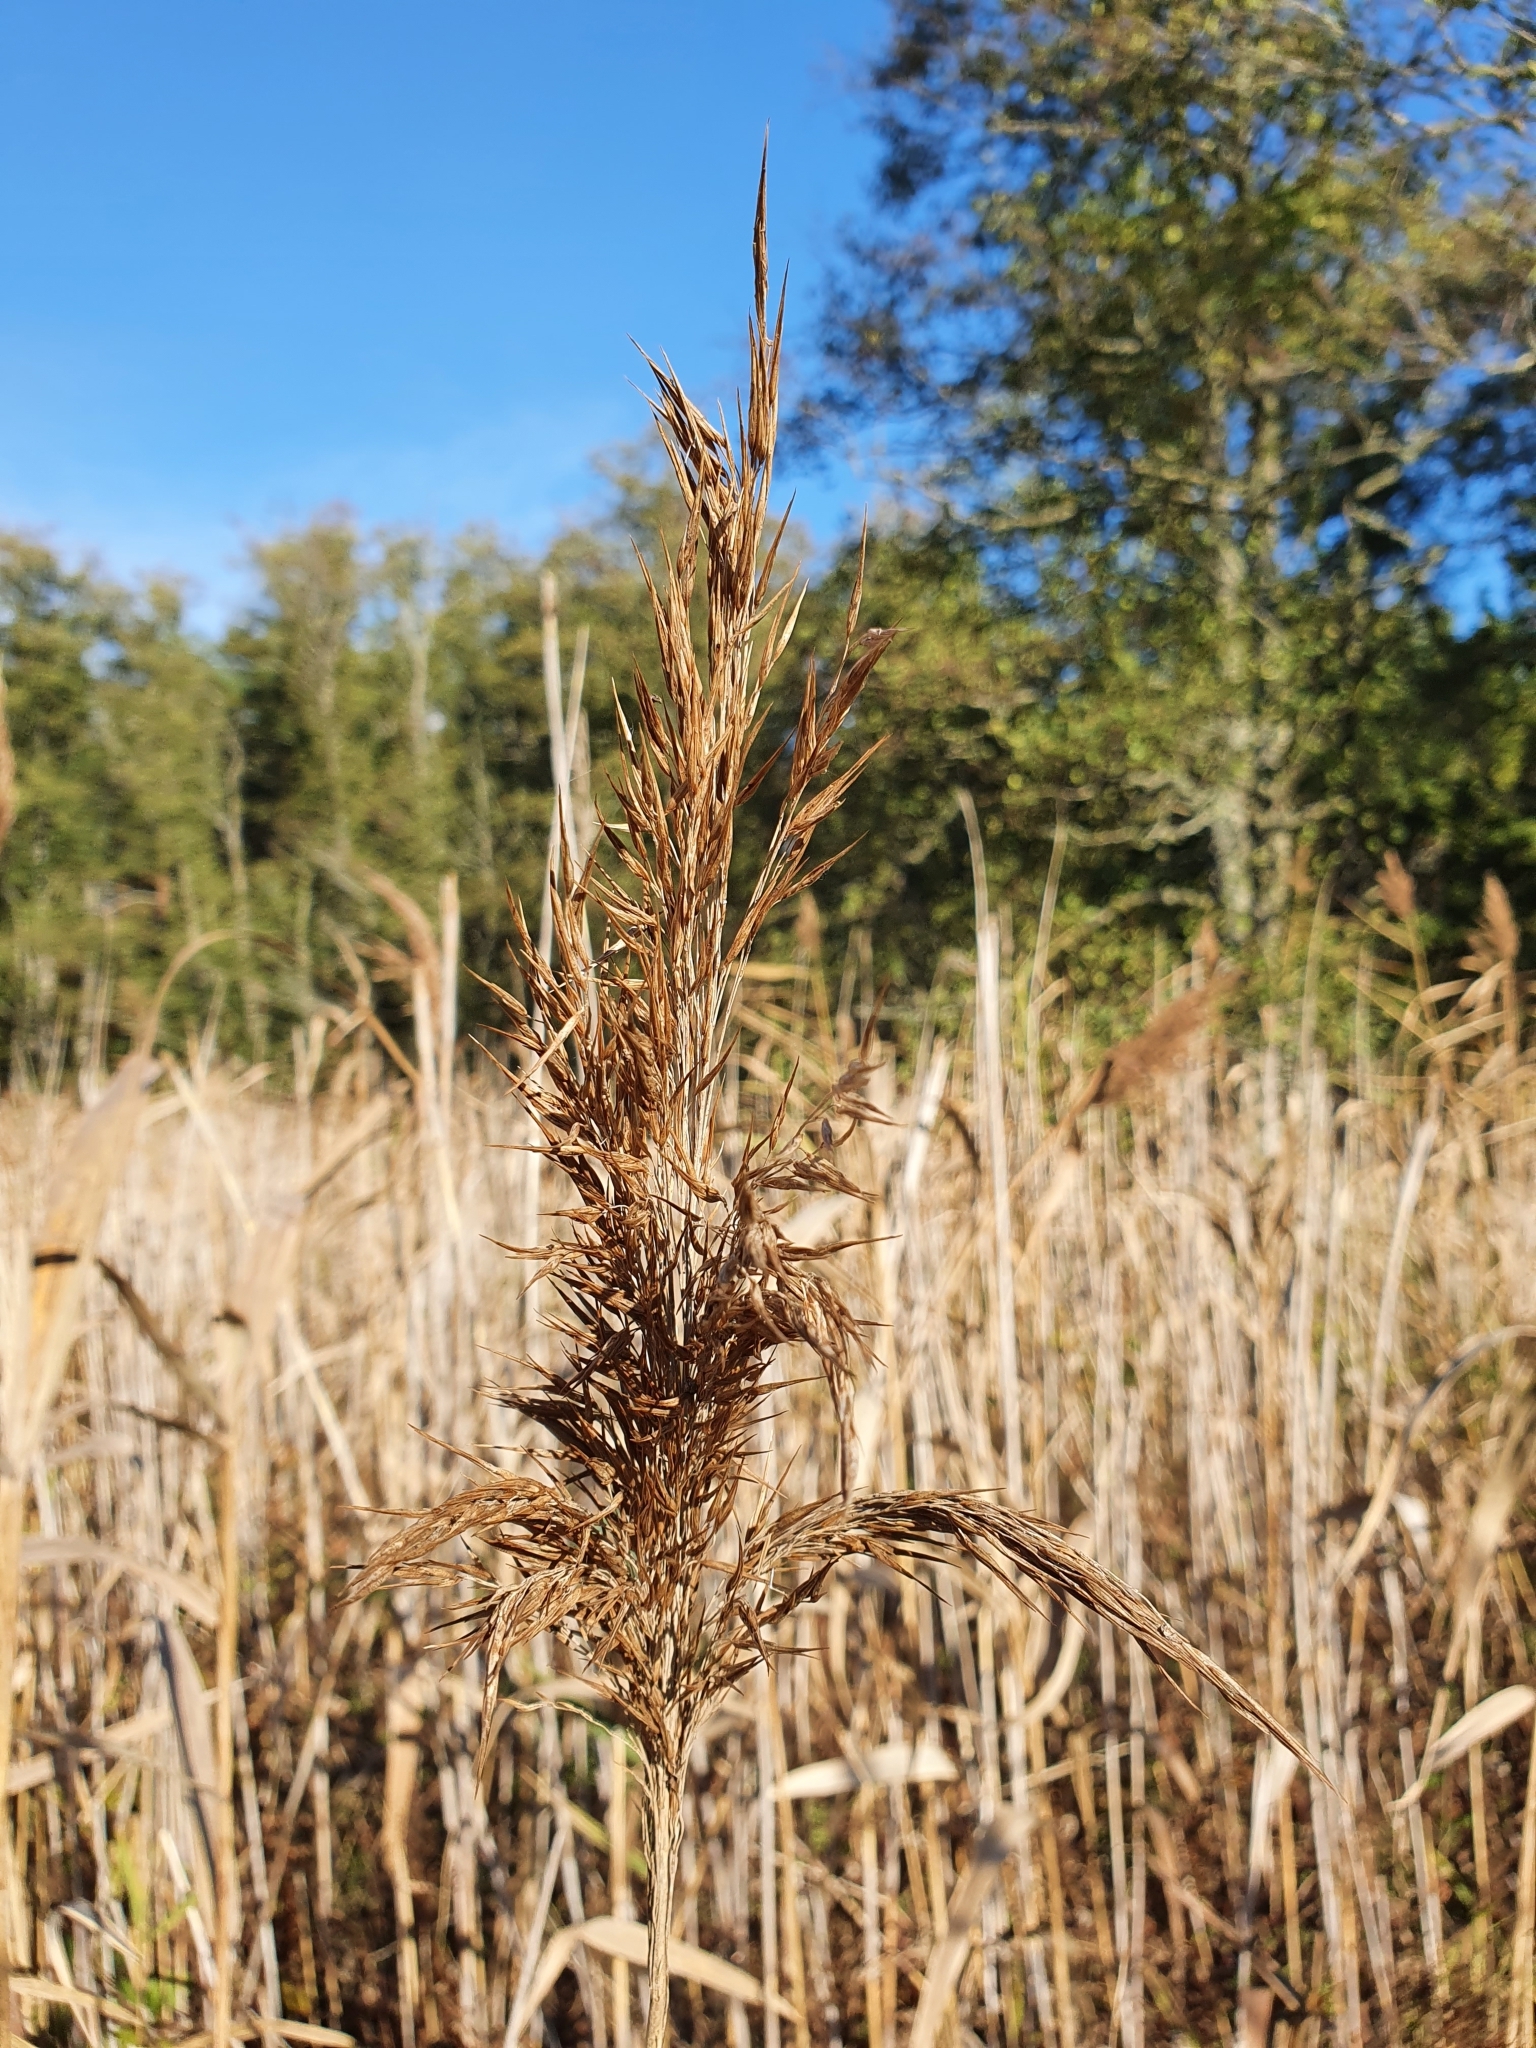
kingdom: Plantae
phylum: Tracheophyta
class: Liliopsida
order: Poales
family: Poaceae
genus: Phragmites
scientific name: Phragmites australis
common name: Common reed
